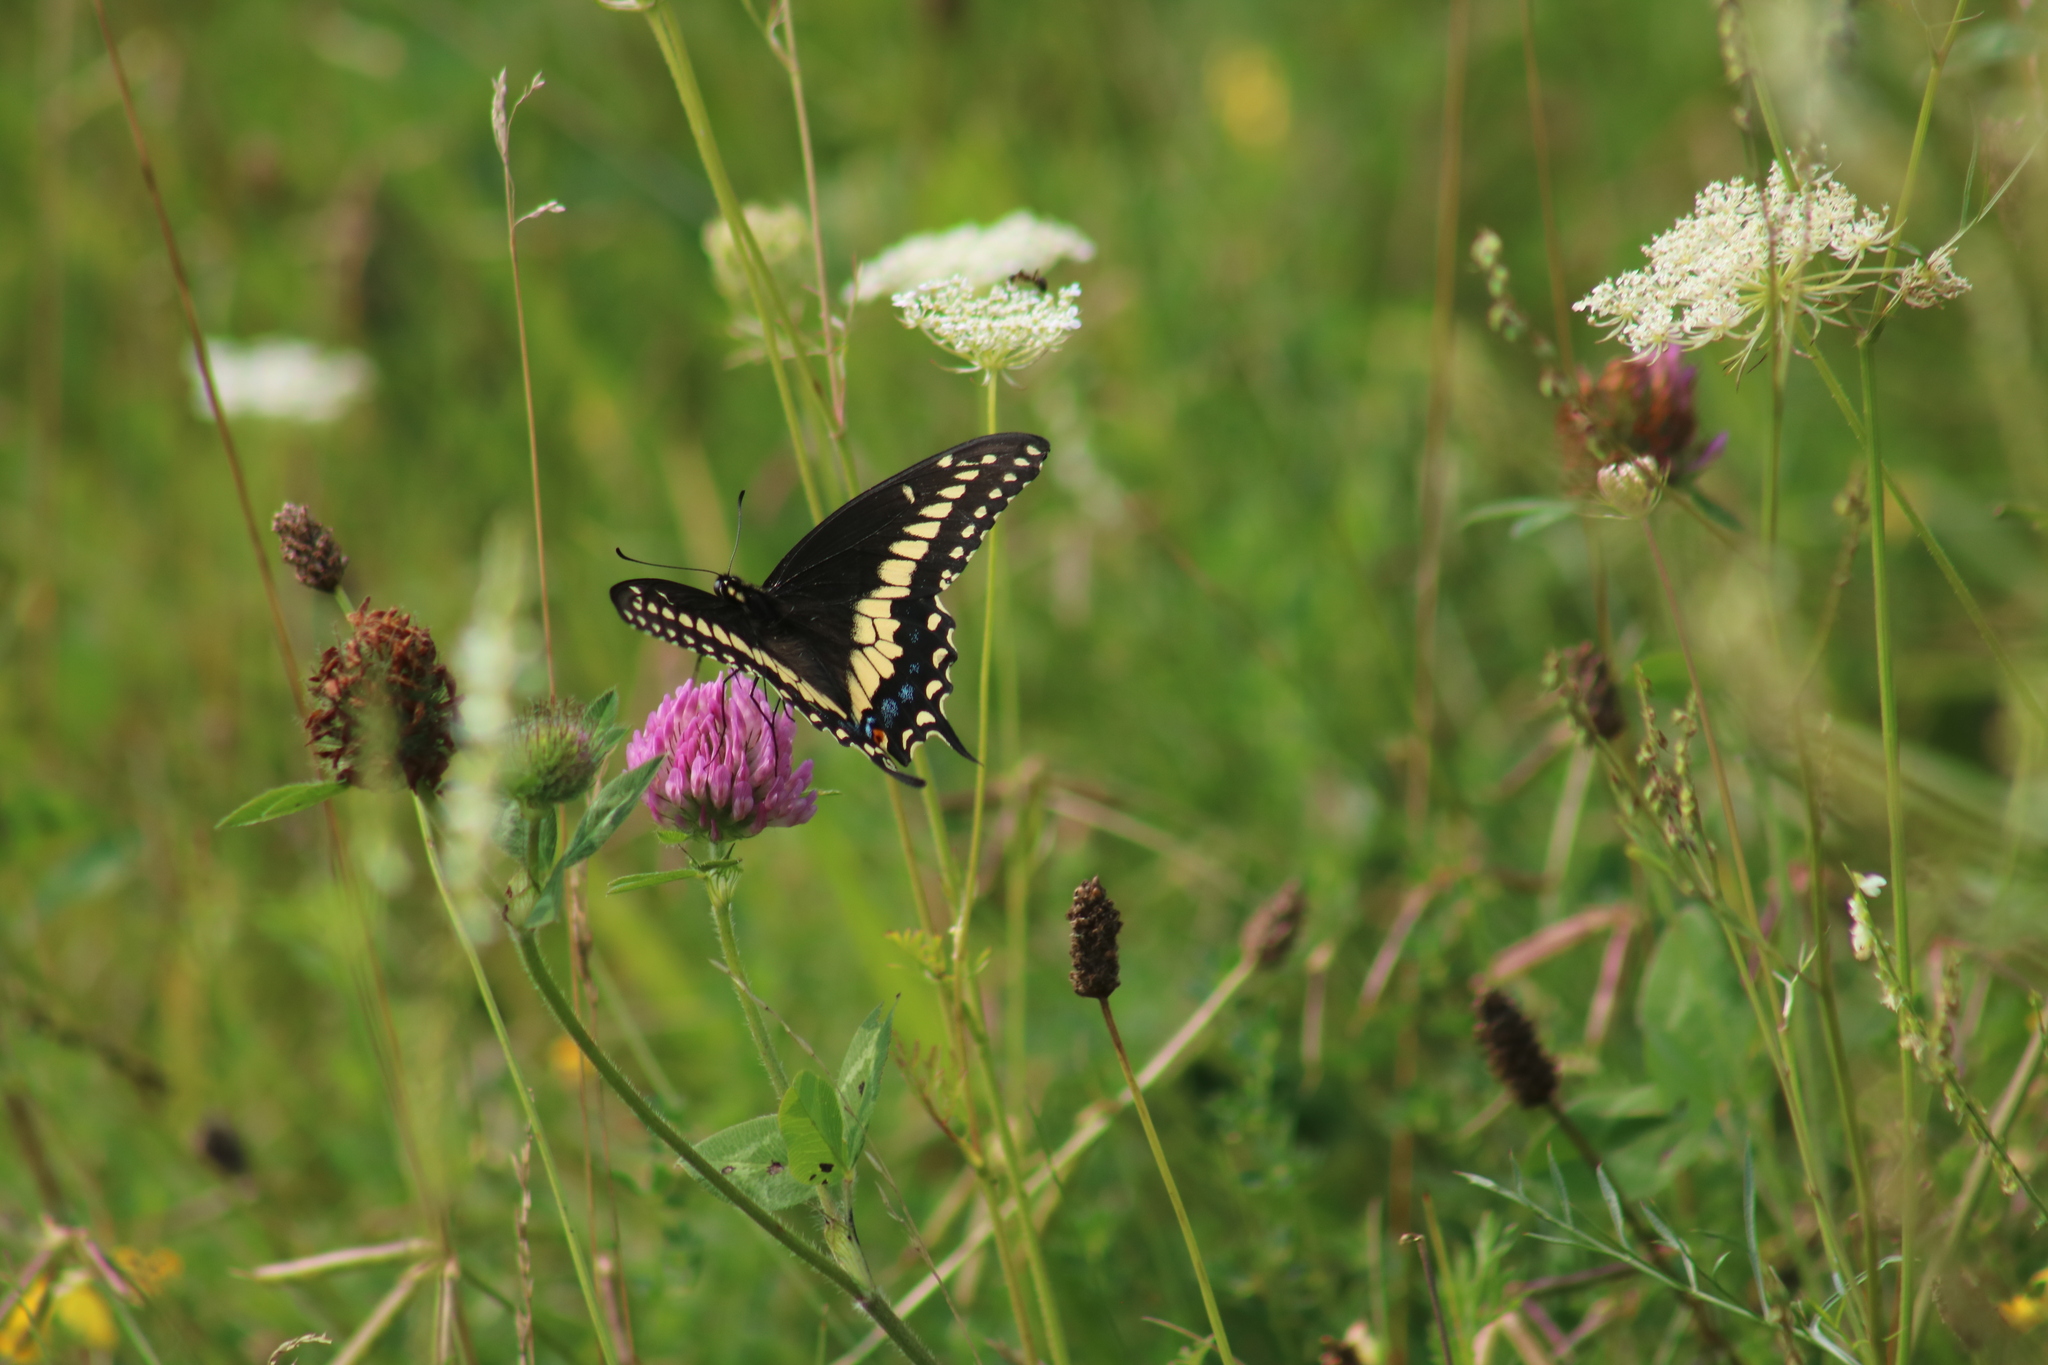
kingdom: Animalia
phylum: Arthropoda
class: Insecta
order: Lepidoptera
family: Papilionidae
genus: Papilio
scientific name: Papilio polyxenes
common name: Black swallowtail
